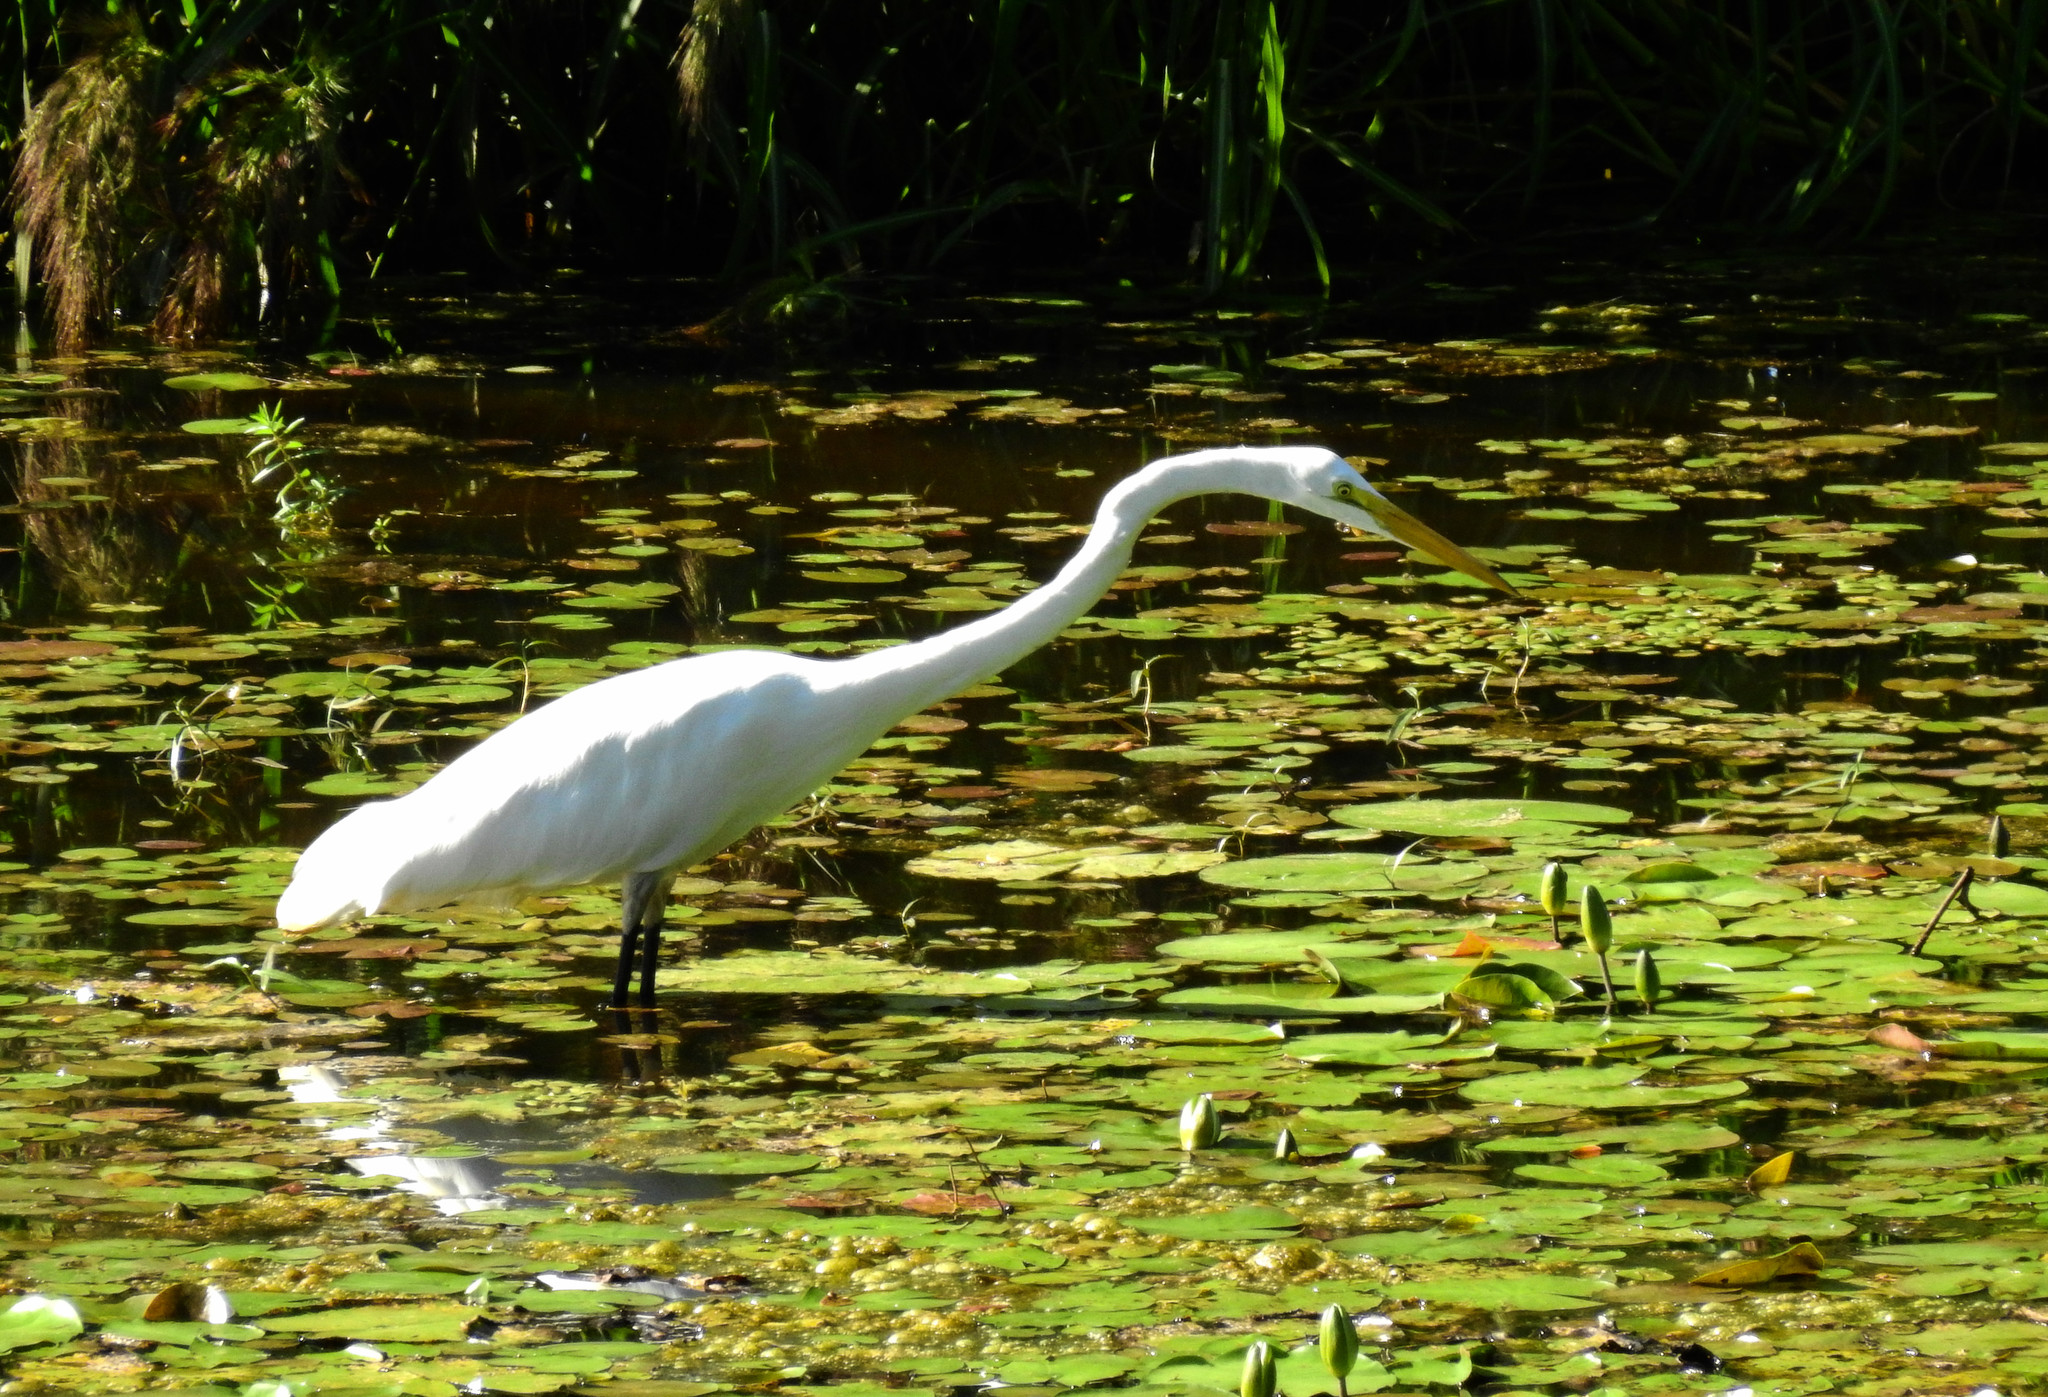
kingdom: Animalia
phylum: Chordata
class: Aves
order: Pelecaniformes
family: Ardeidae
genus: Ardea
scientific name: Ardea alba
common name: Great egret
